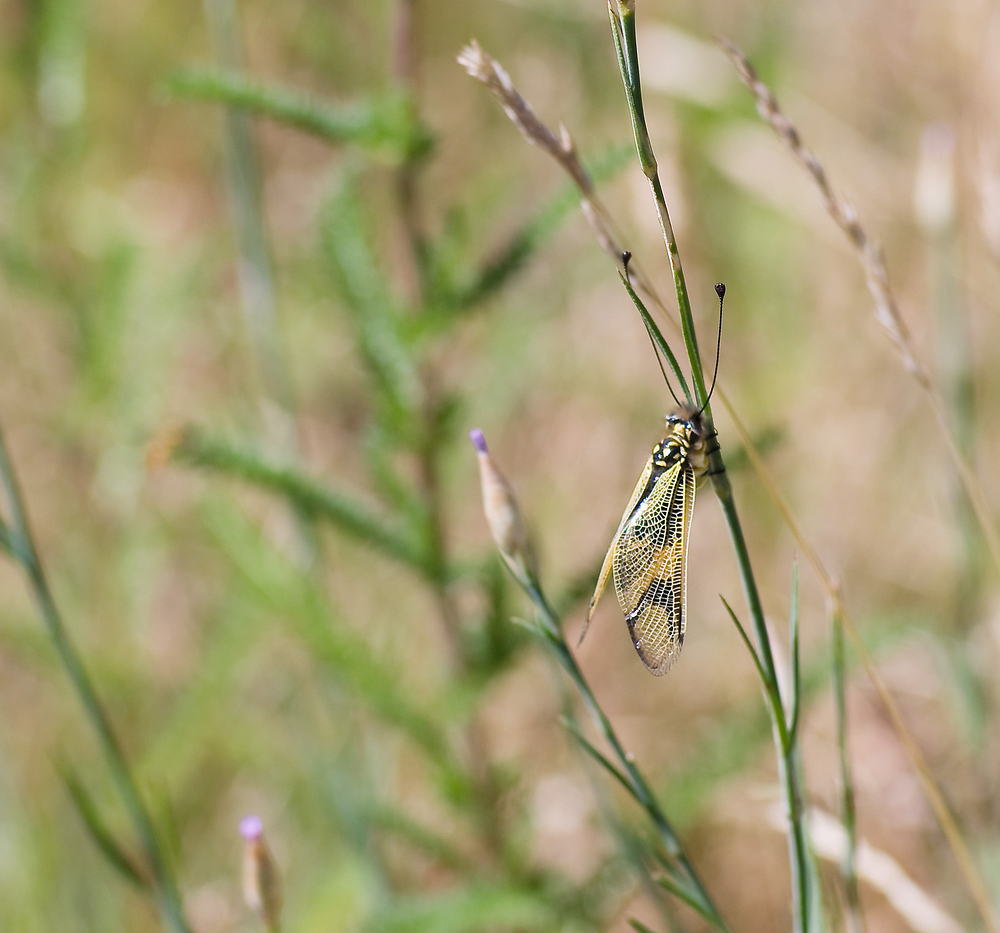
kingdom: Animalia
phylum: Arthropoda
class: Insecta
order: Neuroptera
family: Ascalaphidae
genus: Libelloides
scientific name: Libelloides longicornis
